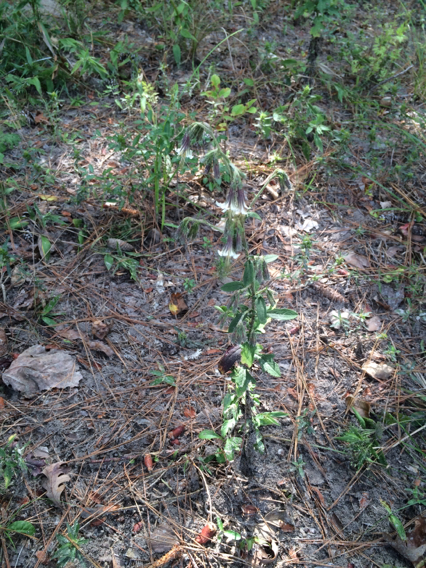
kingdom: Plantae
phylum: Tracheophyta
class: Magnoliopsida
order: Asterales
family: Asteraceae
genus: Nabalus
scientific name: Nabalus barbata
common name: Barbed rattlesnakeroot
